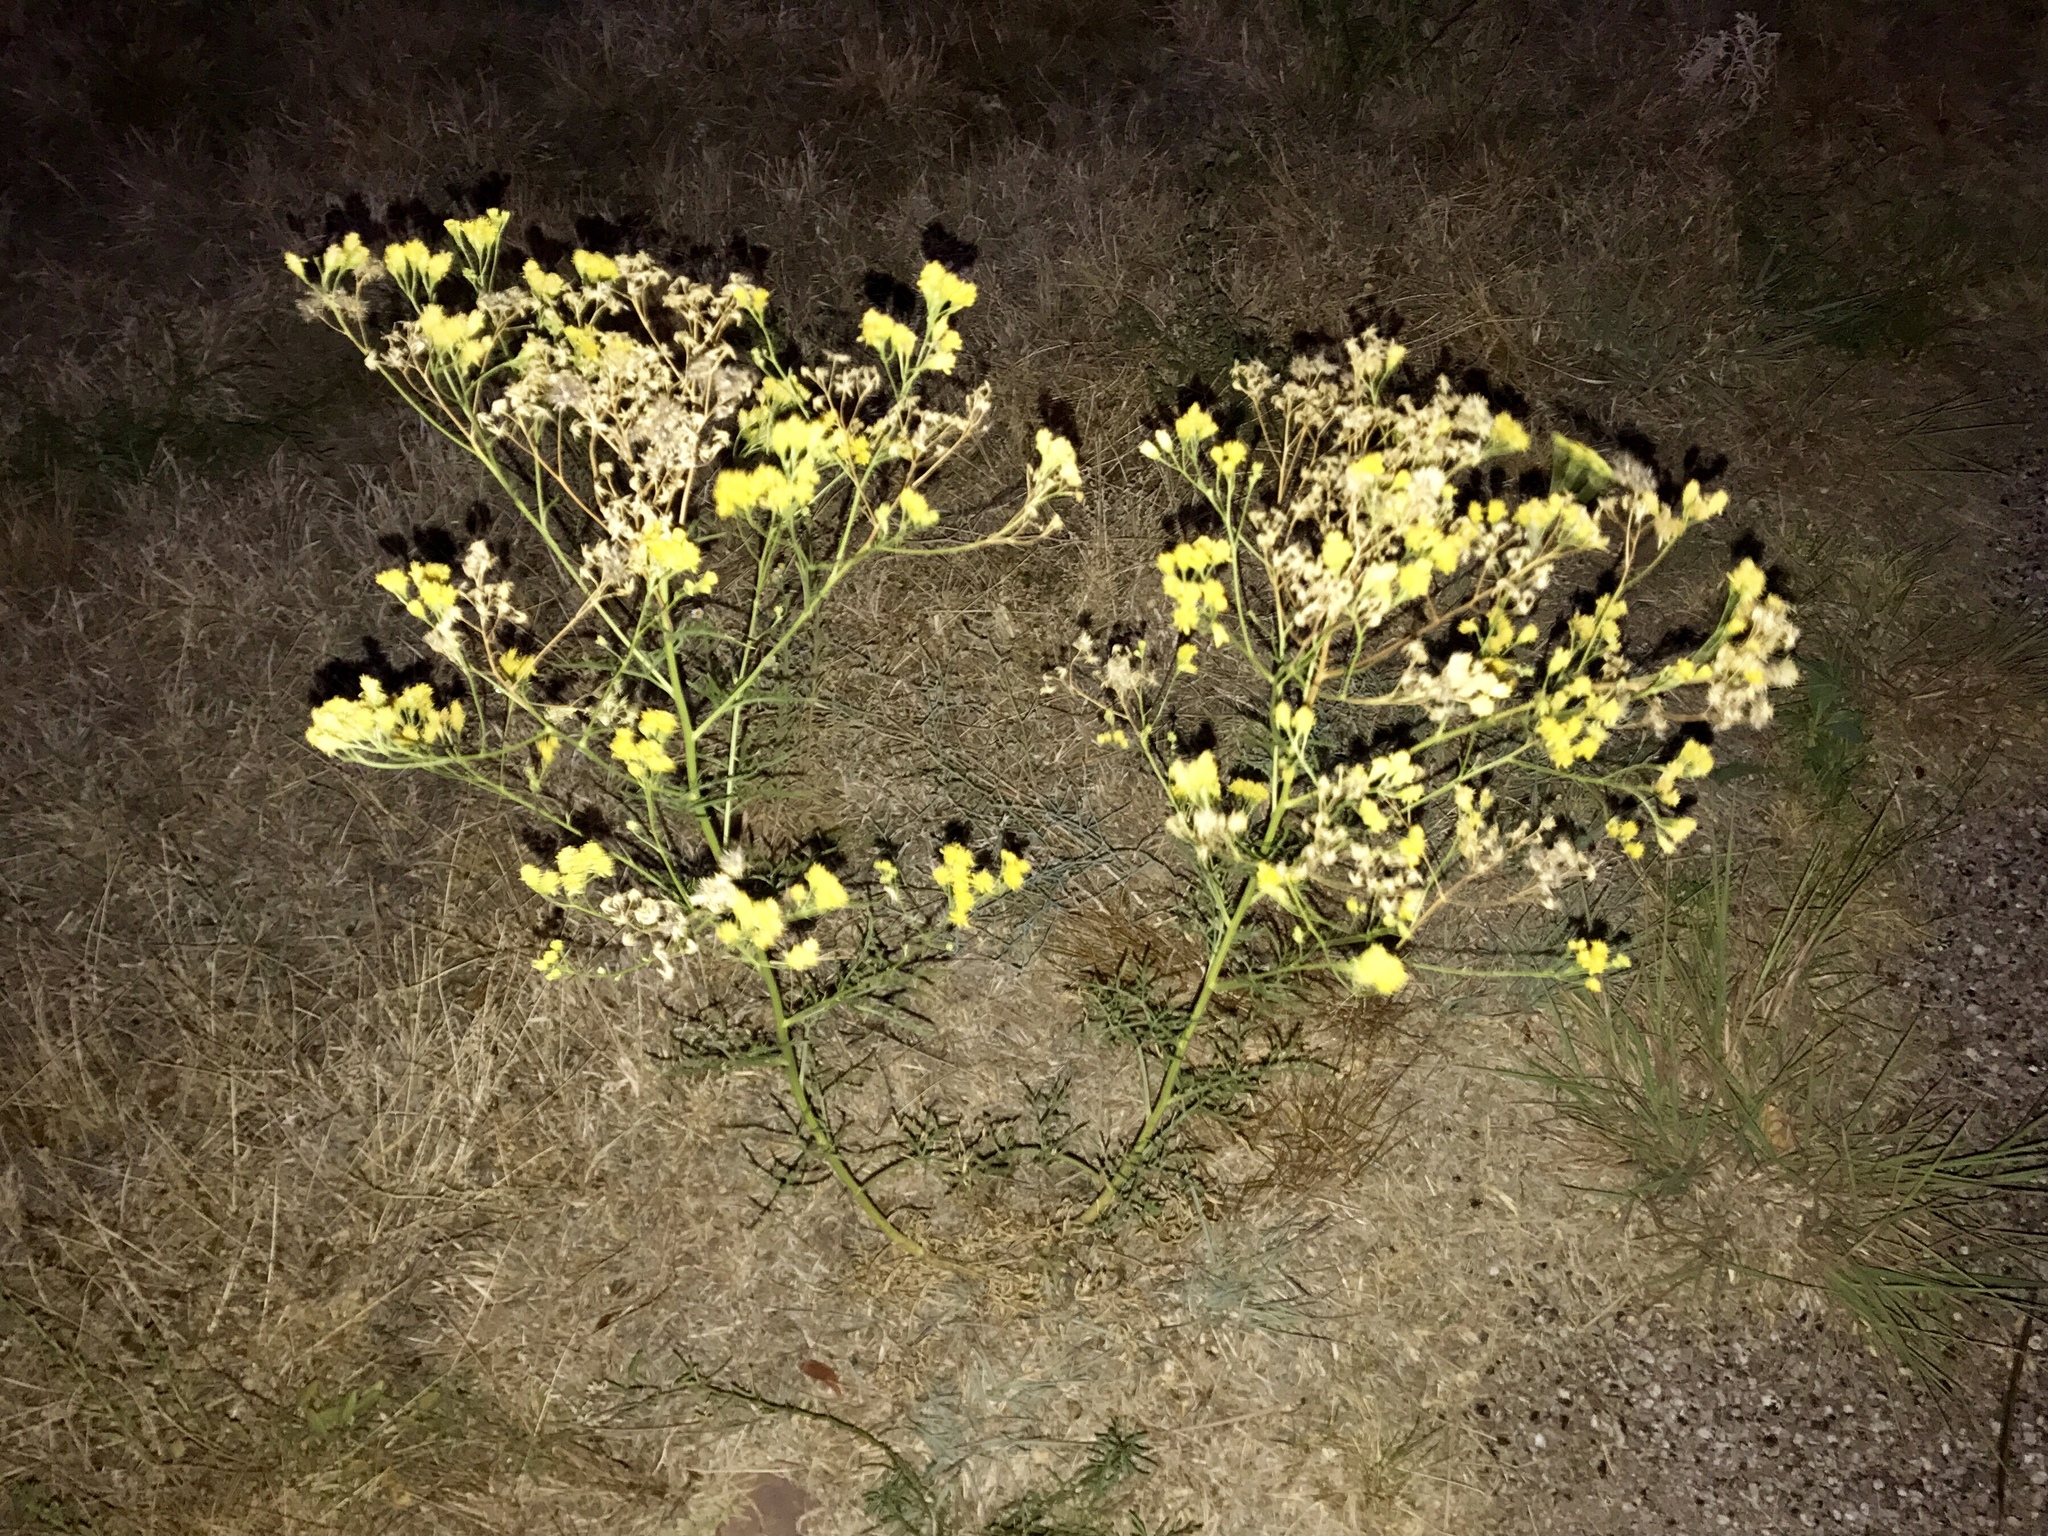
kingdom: Plantae
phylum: Tracheophyta
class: Magnoliopsida
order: Asterales
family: Asteraceae
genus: Hymenothrix
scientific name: Hymenothrix wislizeni
